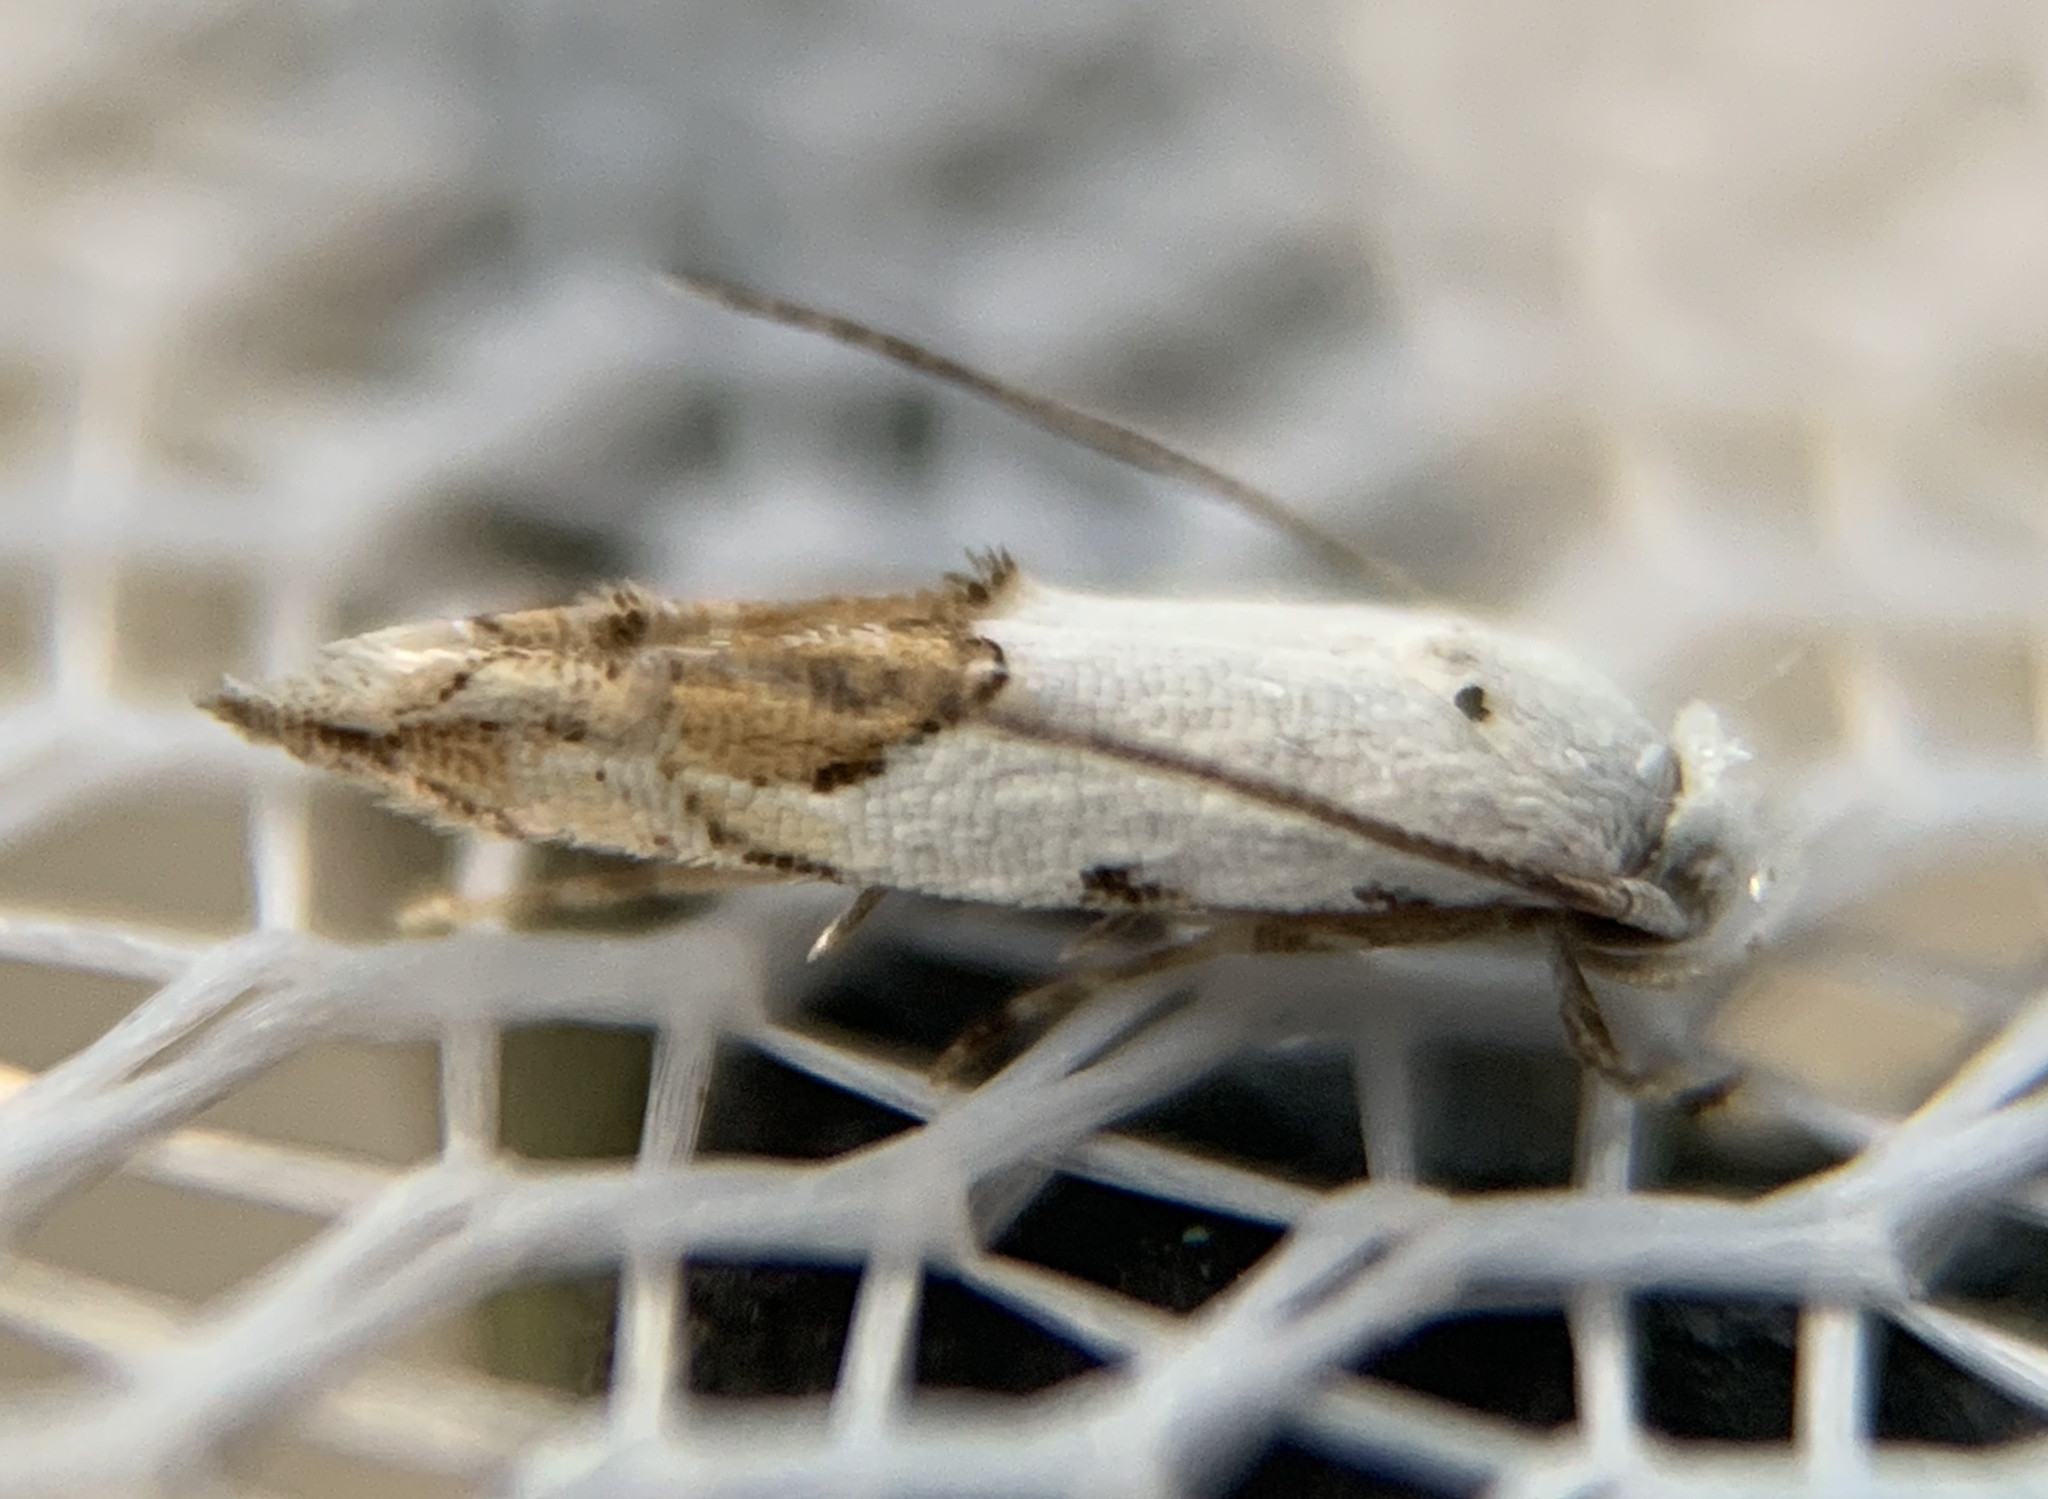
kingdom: Animalia
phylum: Arthropoda
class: Insecta
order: Lepidoptera
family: Momphidae
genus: Mompha
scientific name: Mompha bottimeri
